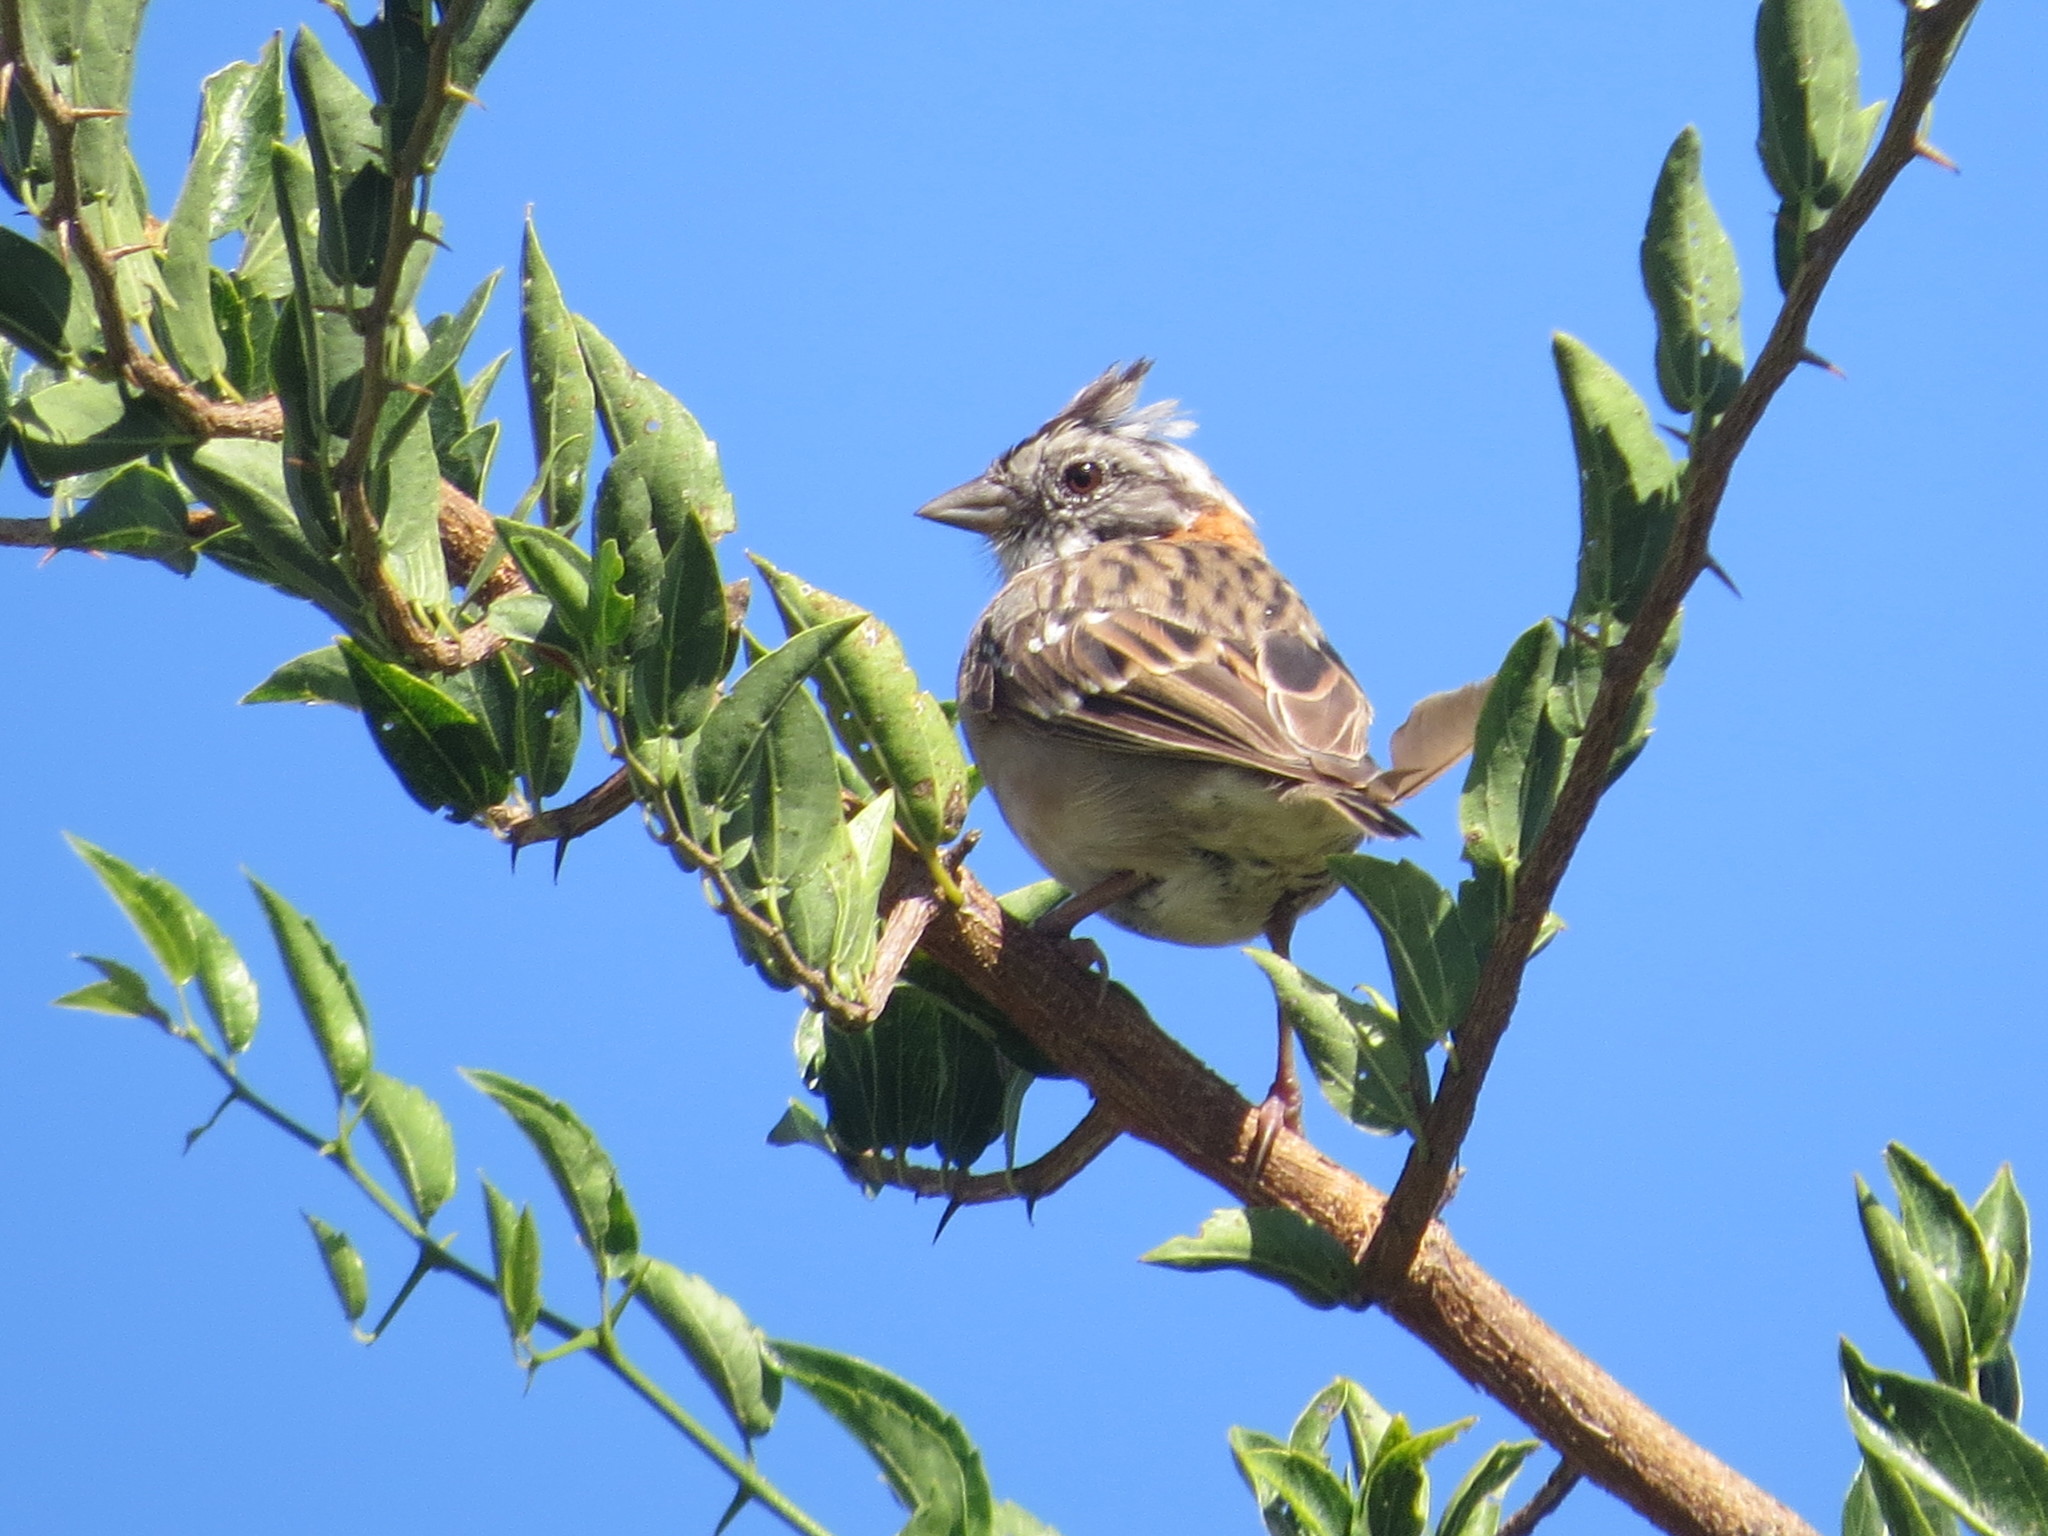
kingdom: Animalia
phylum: Chordata
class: Aves
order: Passeriformes
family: Passerellidae
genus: Zonotrichia
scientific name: Zonotrichia capensis
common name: Rufous-collared sparrow
